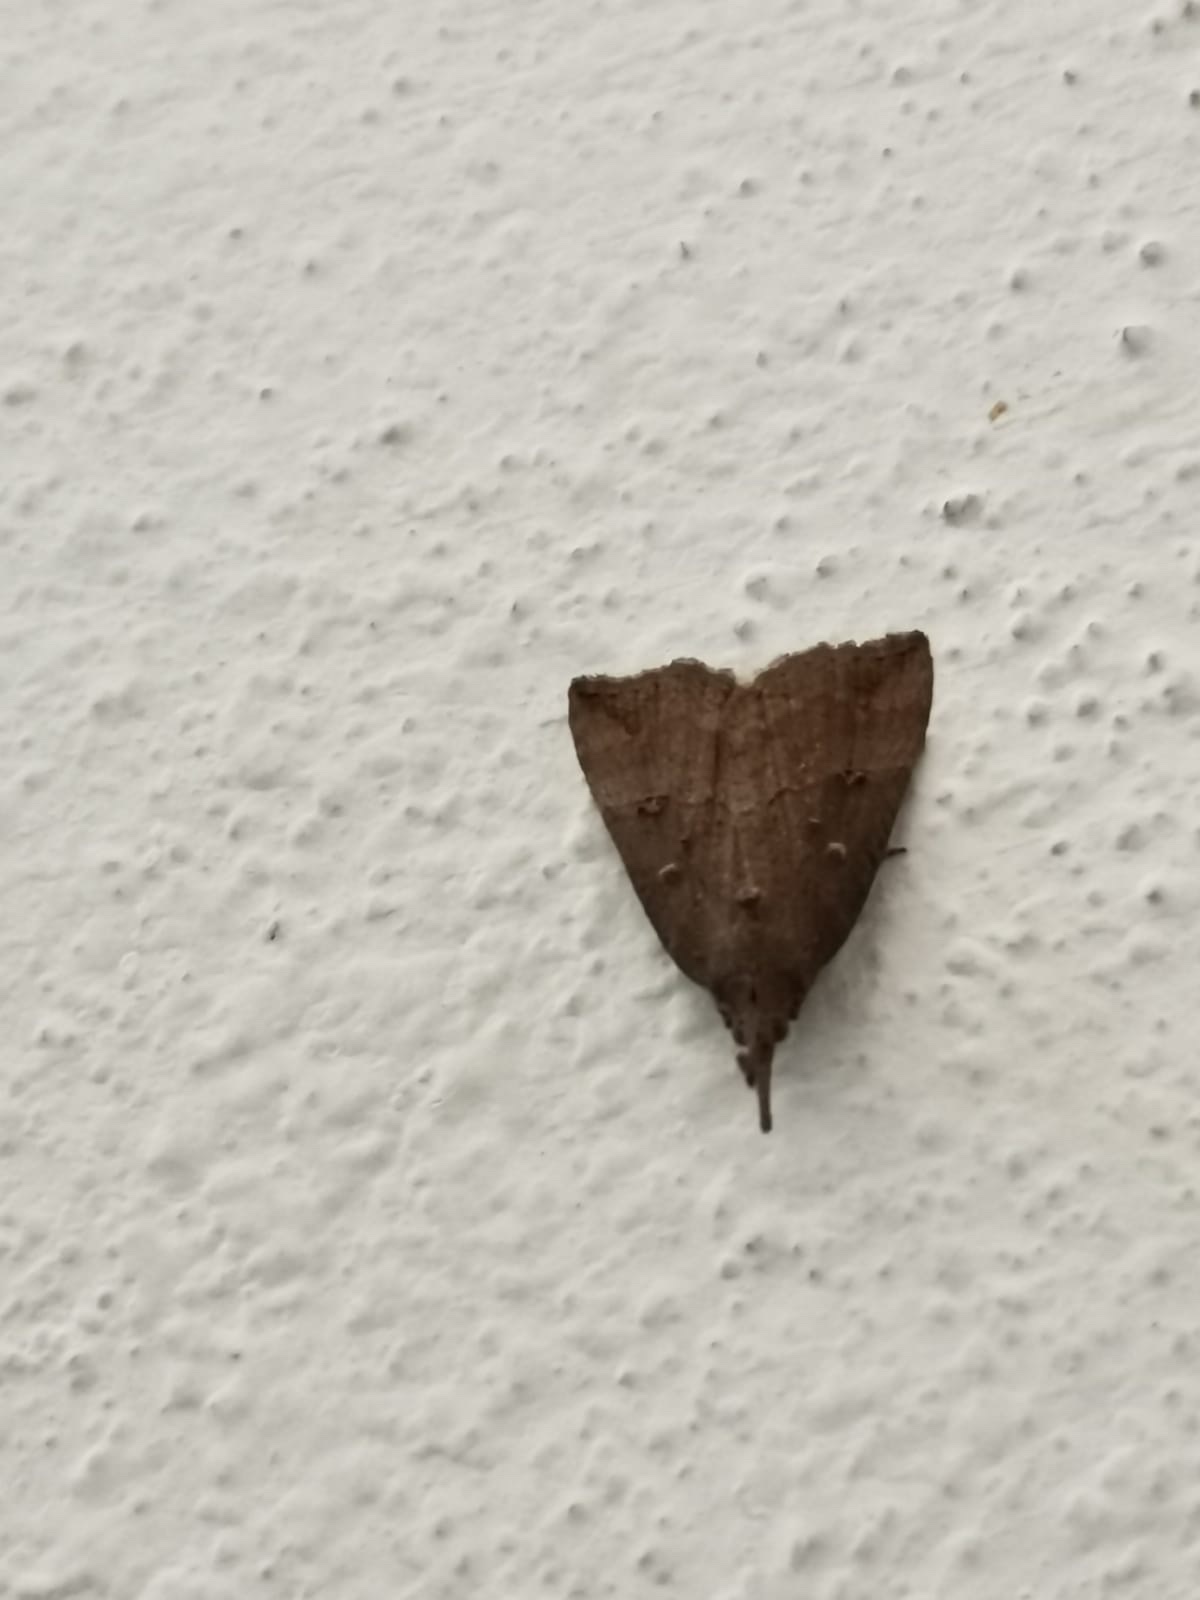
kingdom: Animalia
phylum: Arthropoda
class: Insecta
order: Lepidoptera
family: Erebidae
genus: Hypena
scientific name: Hypena rostralis
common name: Buttoned snout
